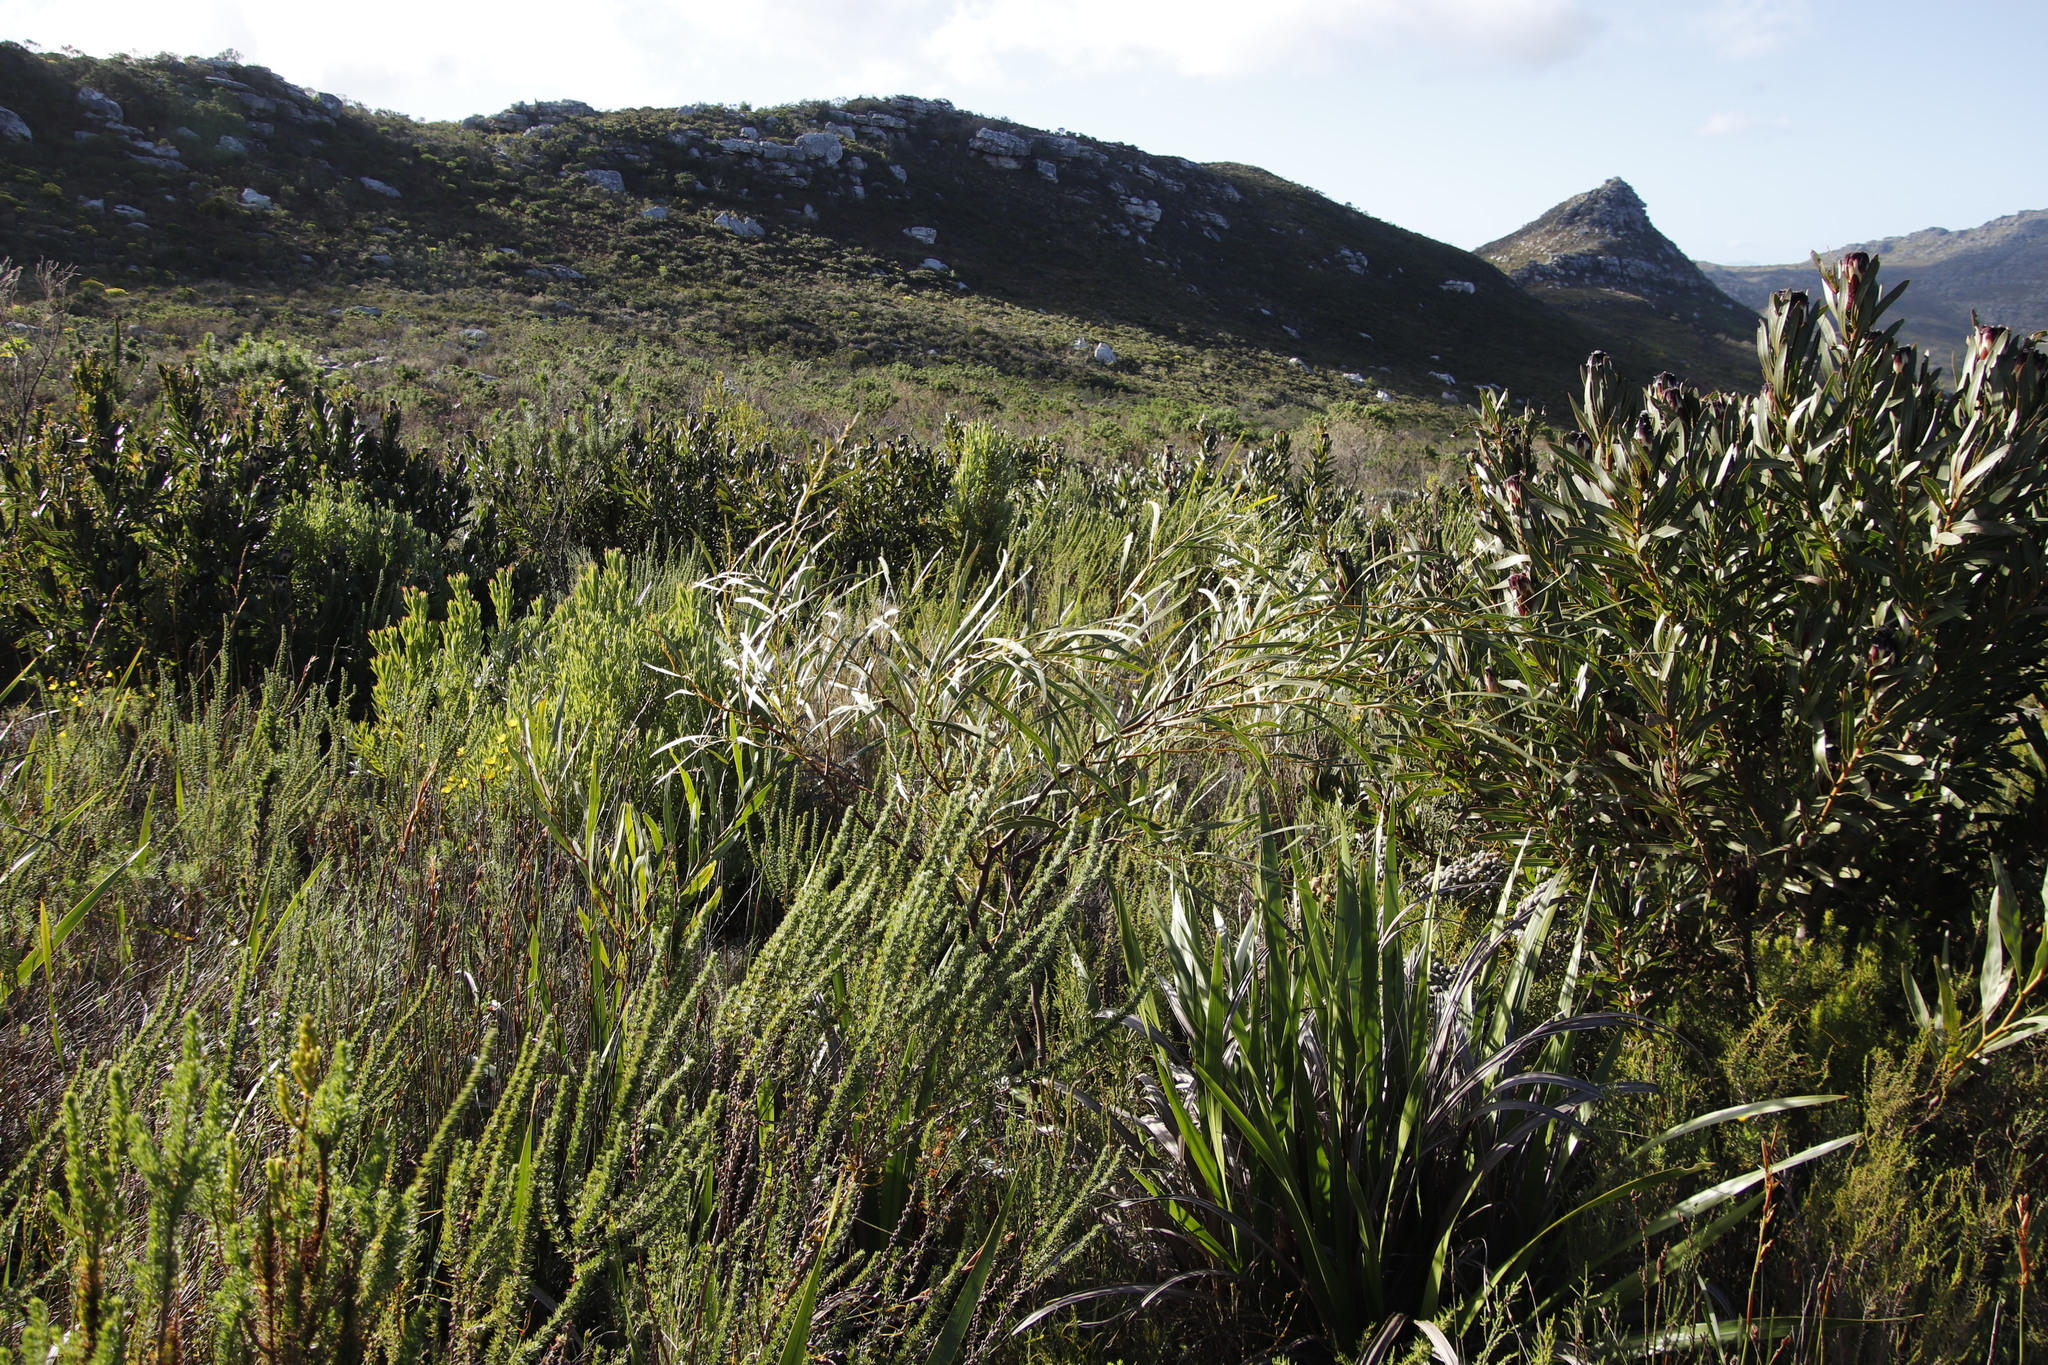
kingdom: Plantae
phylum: Tracheophyta
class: Magnoliopsida
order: Fabales
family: Fabaceae
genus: Acacia
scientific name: Acacia saligna
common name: Orange wattle
